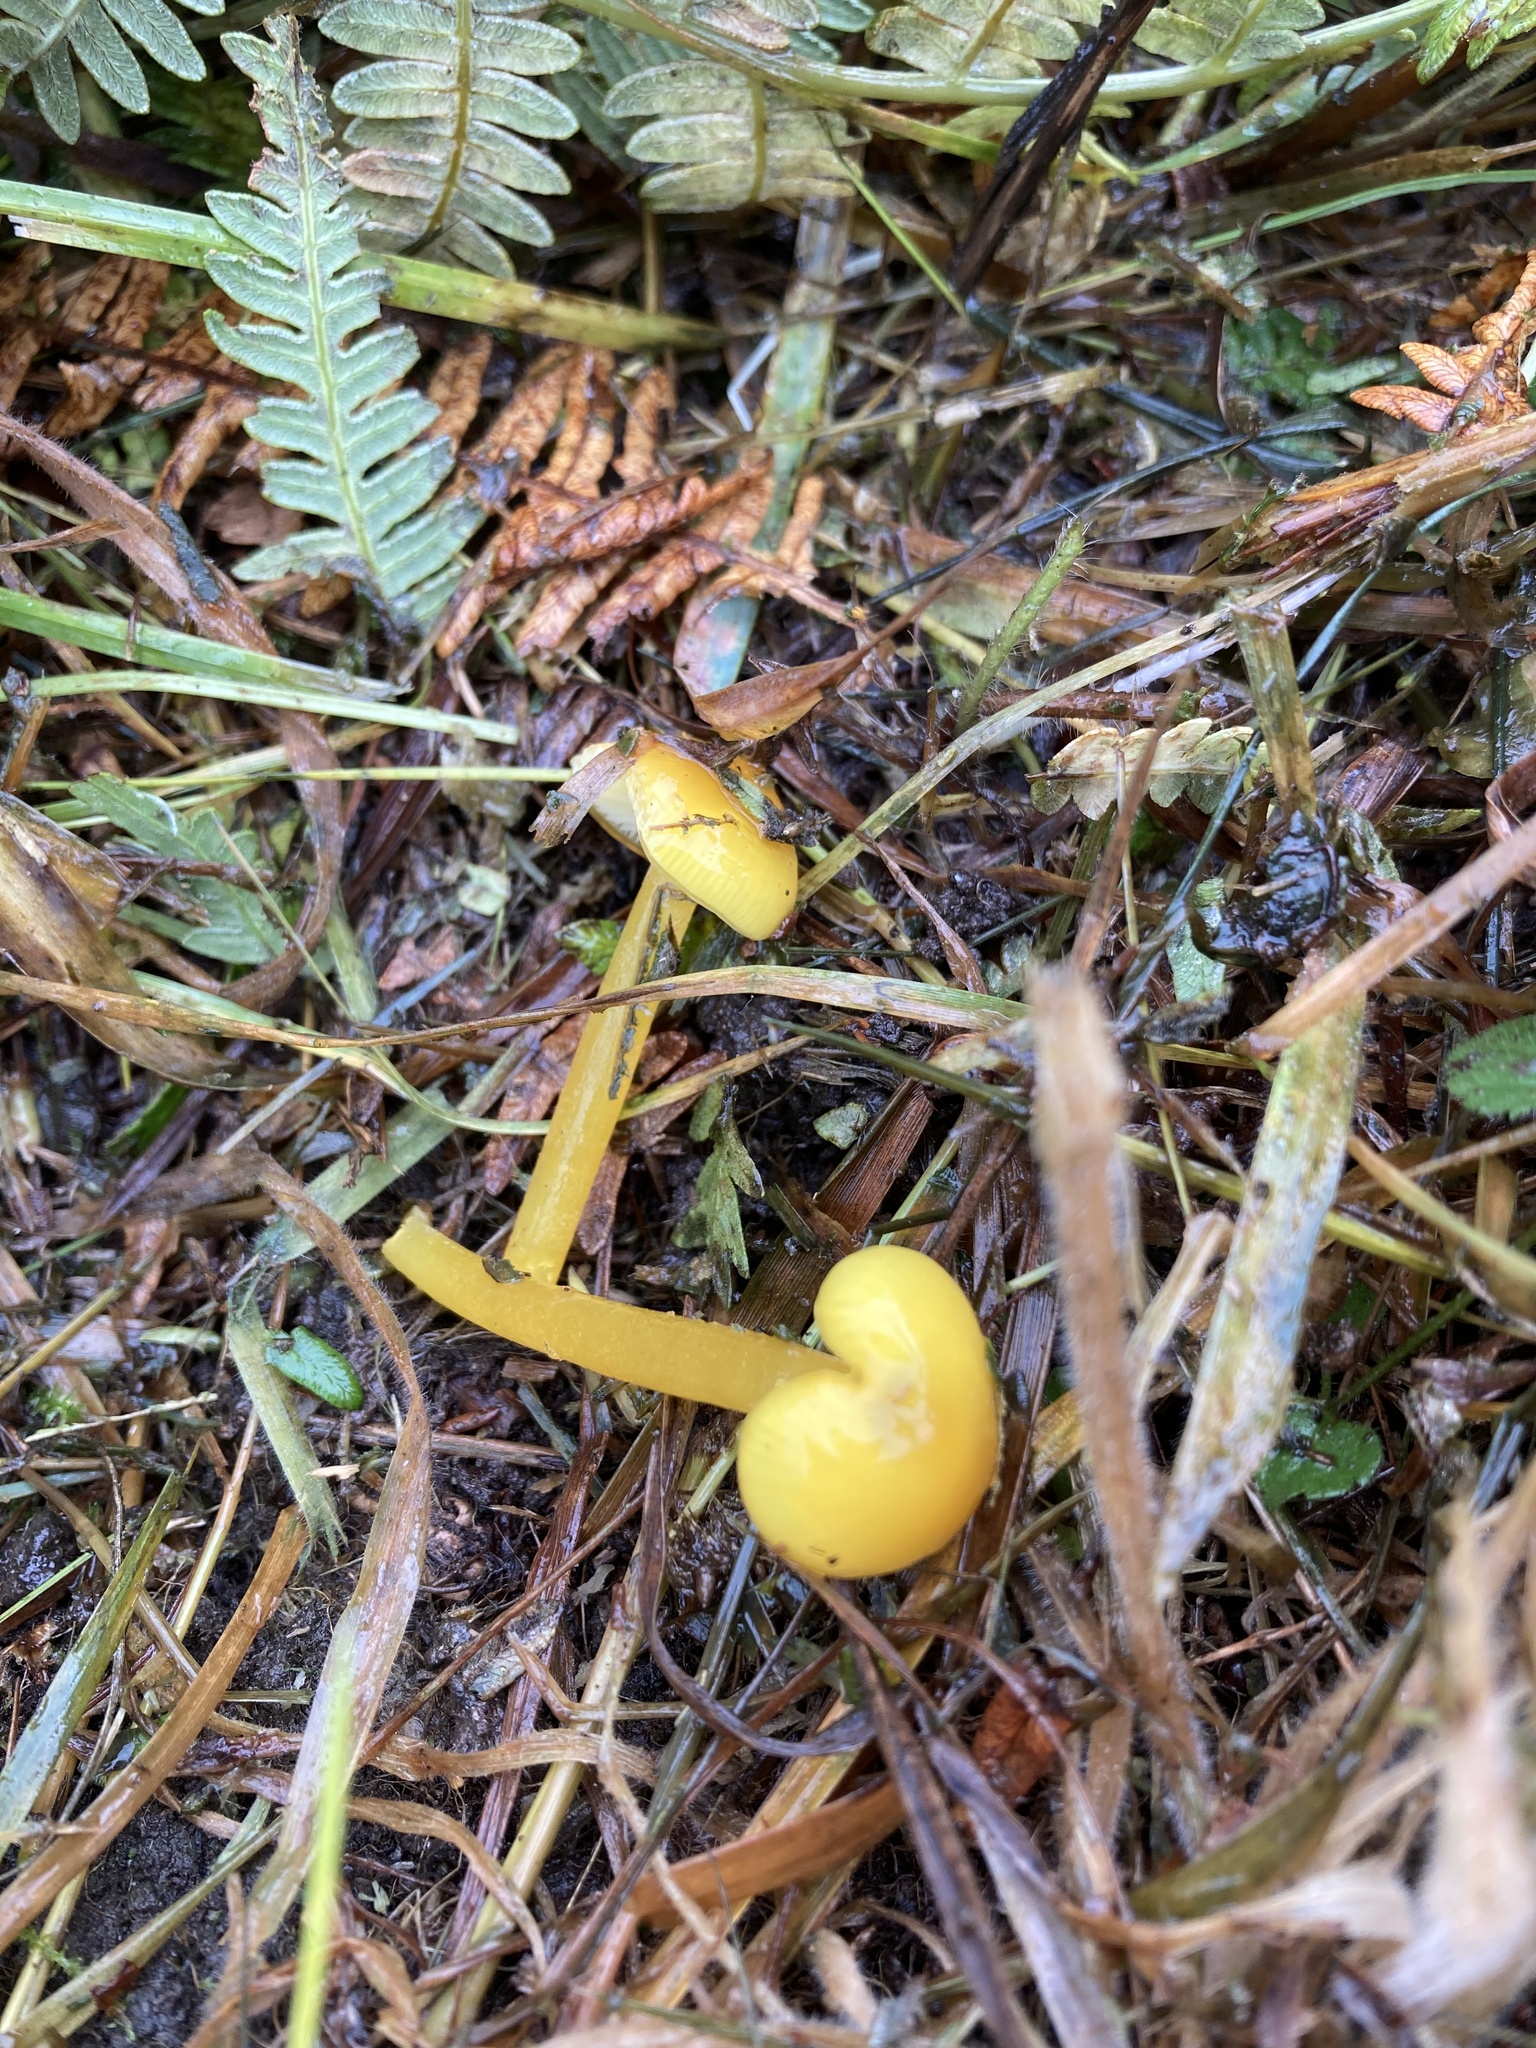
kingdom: Fungi
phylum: Basidiomycota
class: Agaricomycetes
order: Agaricales
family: Hygrophoraceae
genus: Hygrocybe
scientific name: Hygrocybe glutinipes
